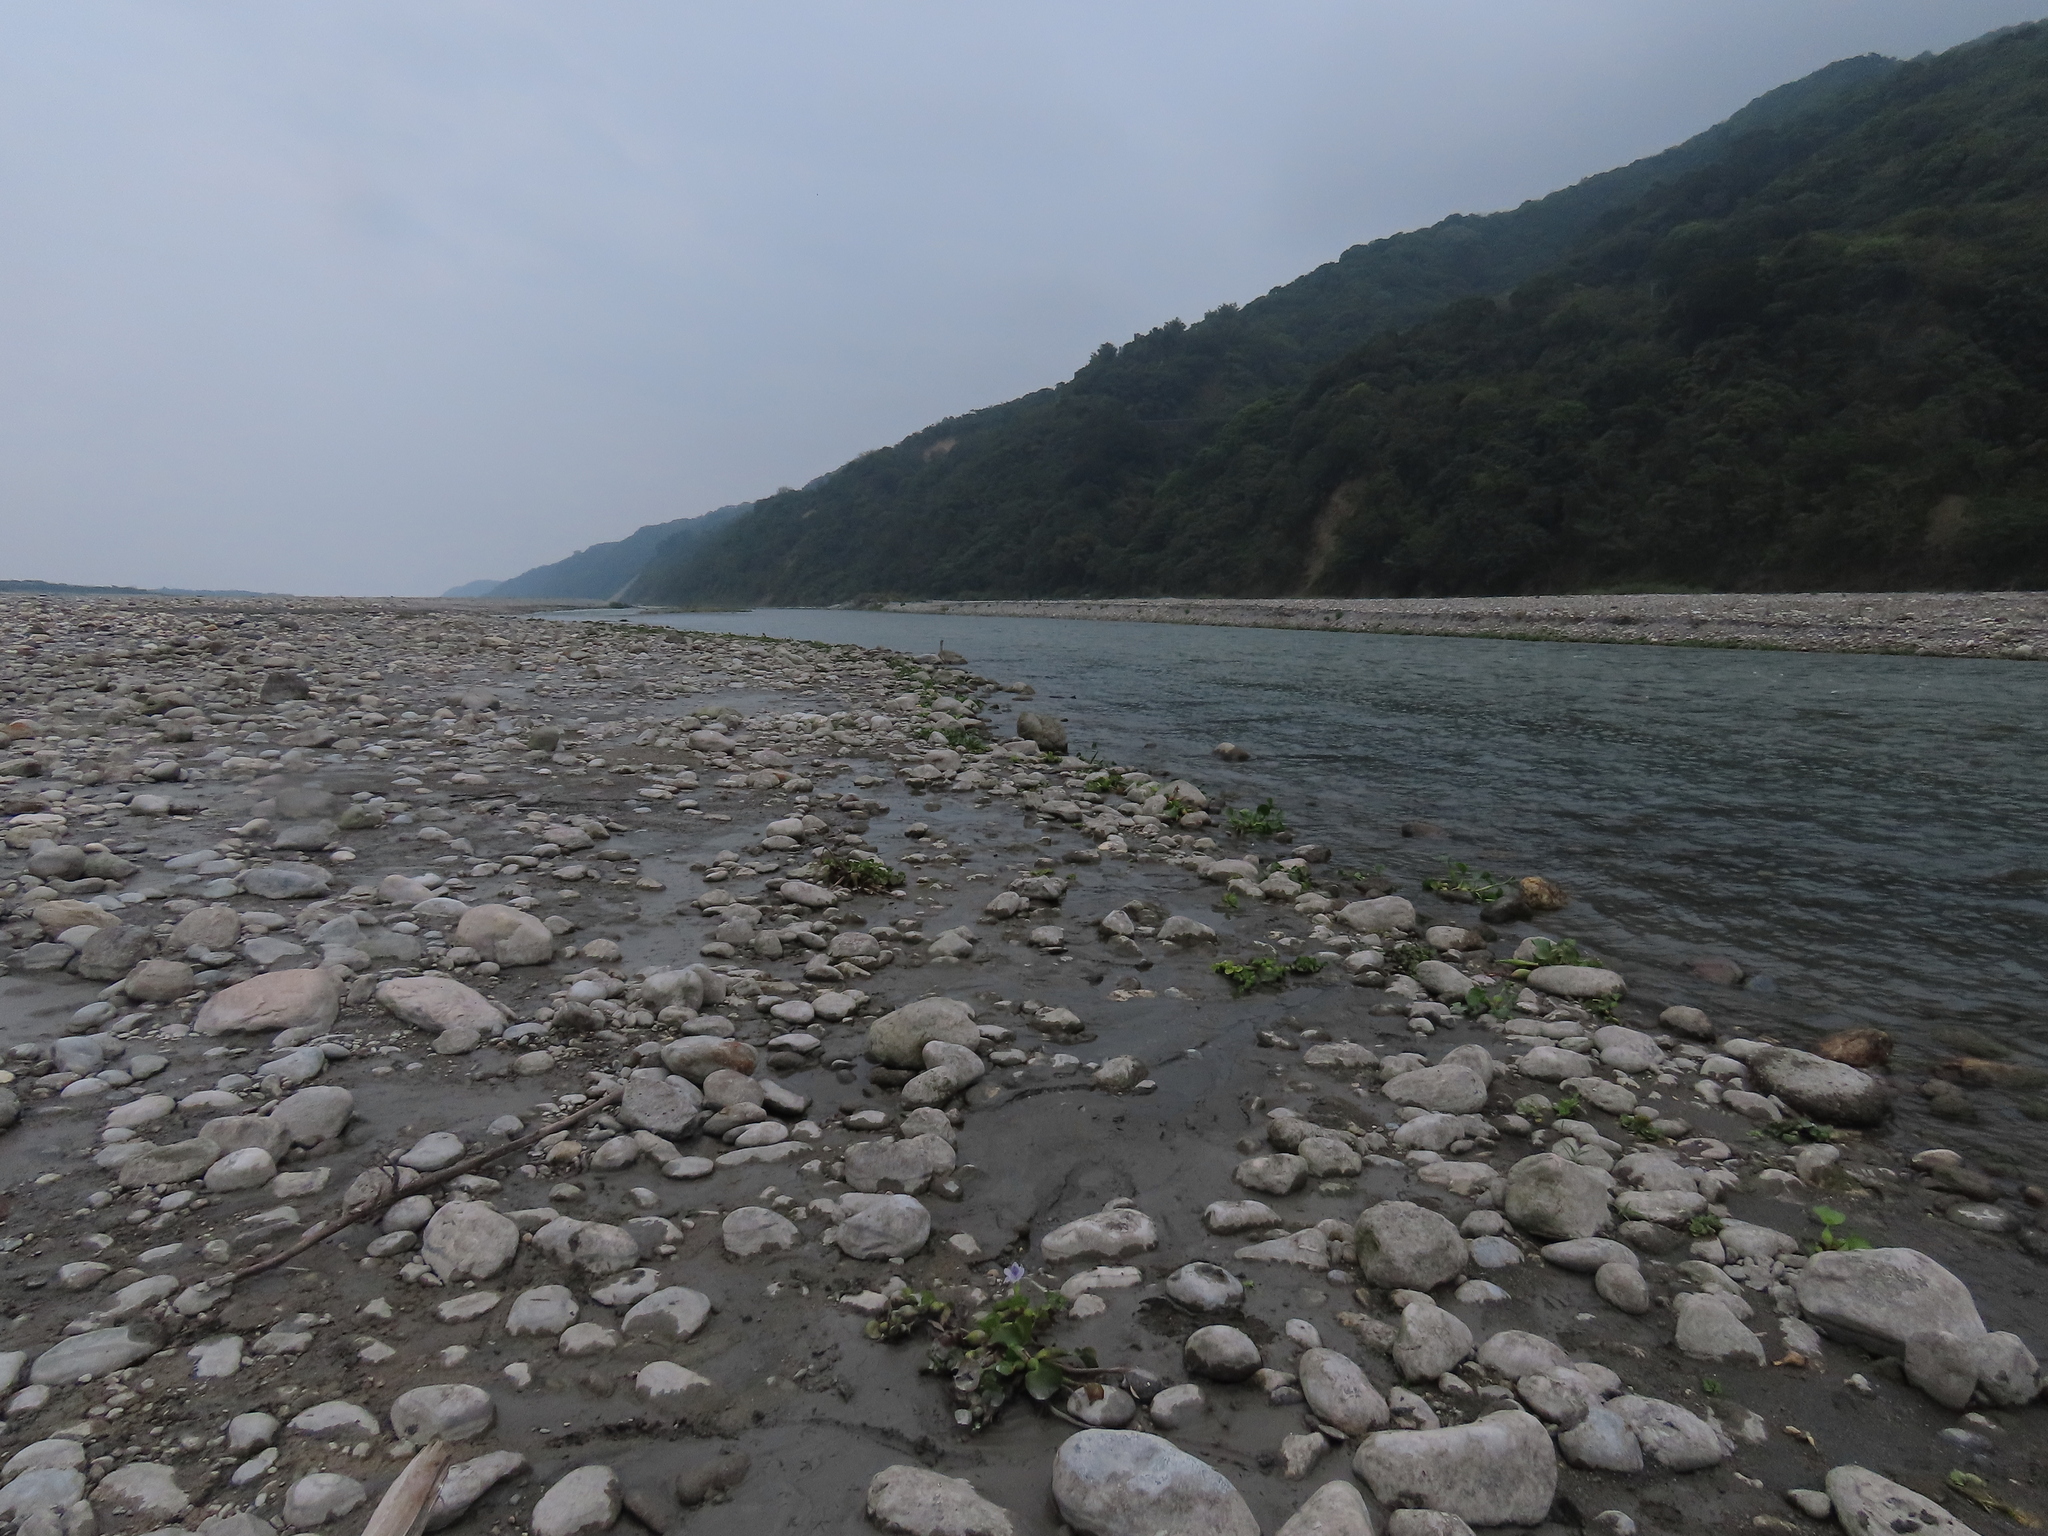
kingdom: Plantae
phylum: Tracheophyta
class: Liliopsida
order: Commelinales
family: Pontederiaceae
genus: Pontederia
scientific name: Pontederia crassipes
